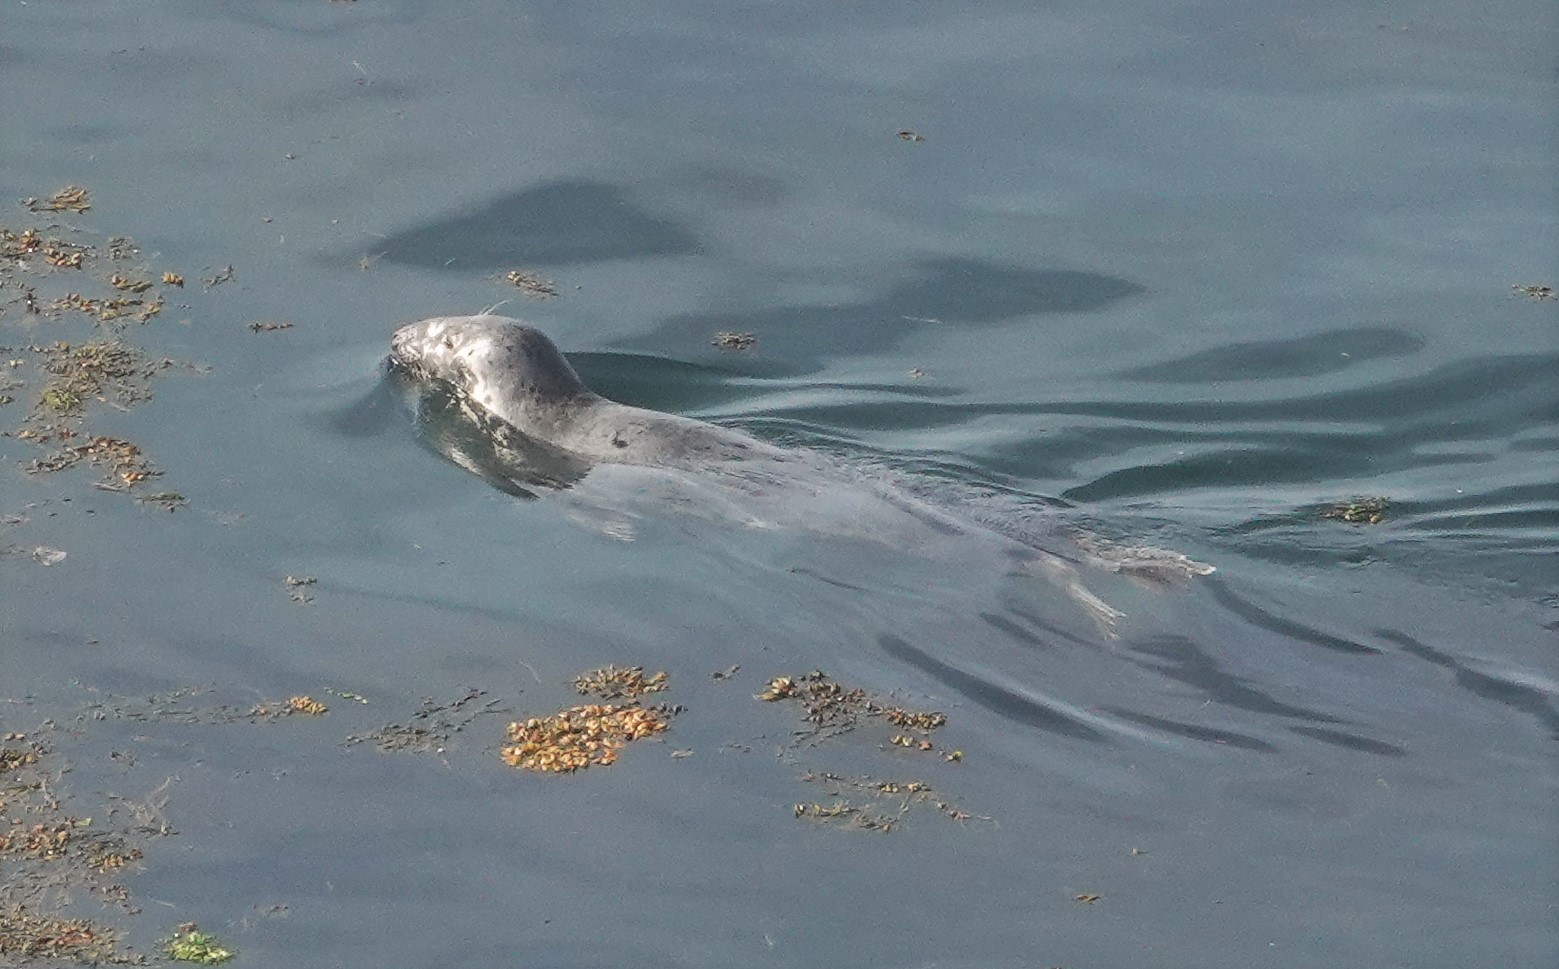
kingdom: Animalia
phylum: Chordata
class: Mammalia
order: Carnivora
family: Phocidae
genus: Halichoerus
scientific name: Halichoerus grypus
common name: Grey seal
